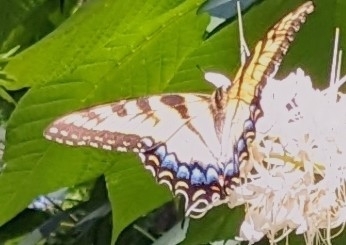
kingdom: Animalia
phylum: Arthropoda
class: Insecta
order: Lepidoptera
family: Papilionidae
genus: Papilio
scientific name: Papilio glaucus
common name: Tiger swallowtail
